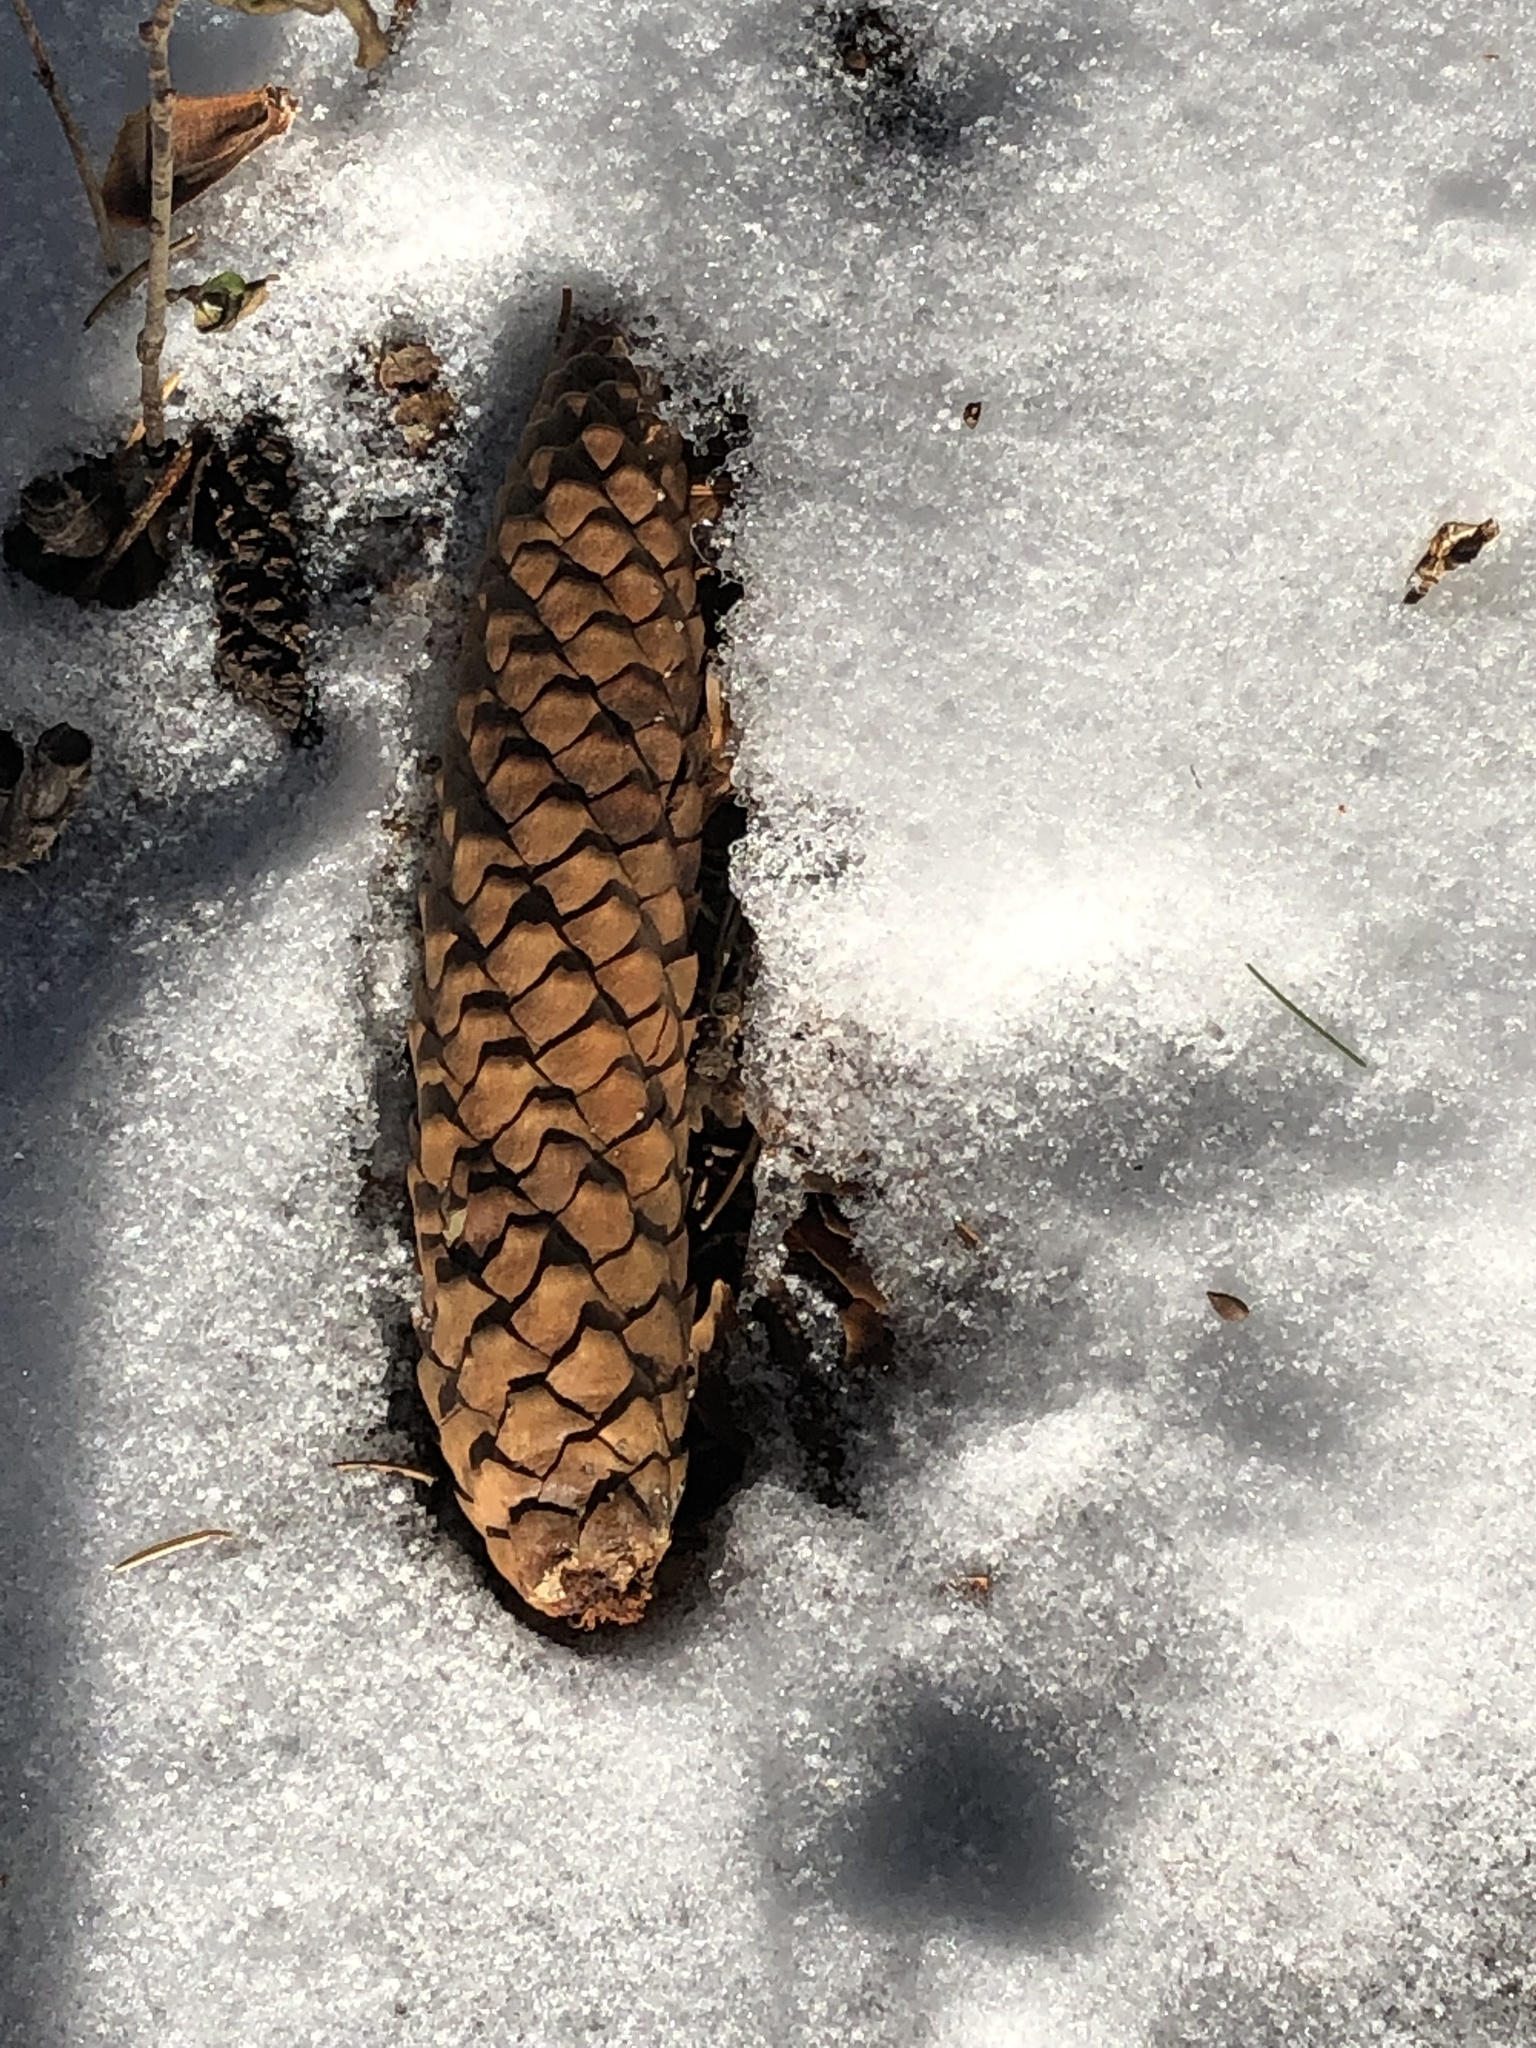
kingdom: Plantae
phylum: Tracheophyta
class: Pinopsida
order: Pinales
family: Pinaceae
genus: Picea
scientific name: Picea abies
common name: Norway spruce
